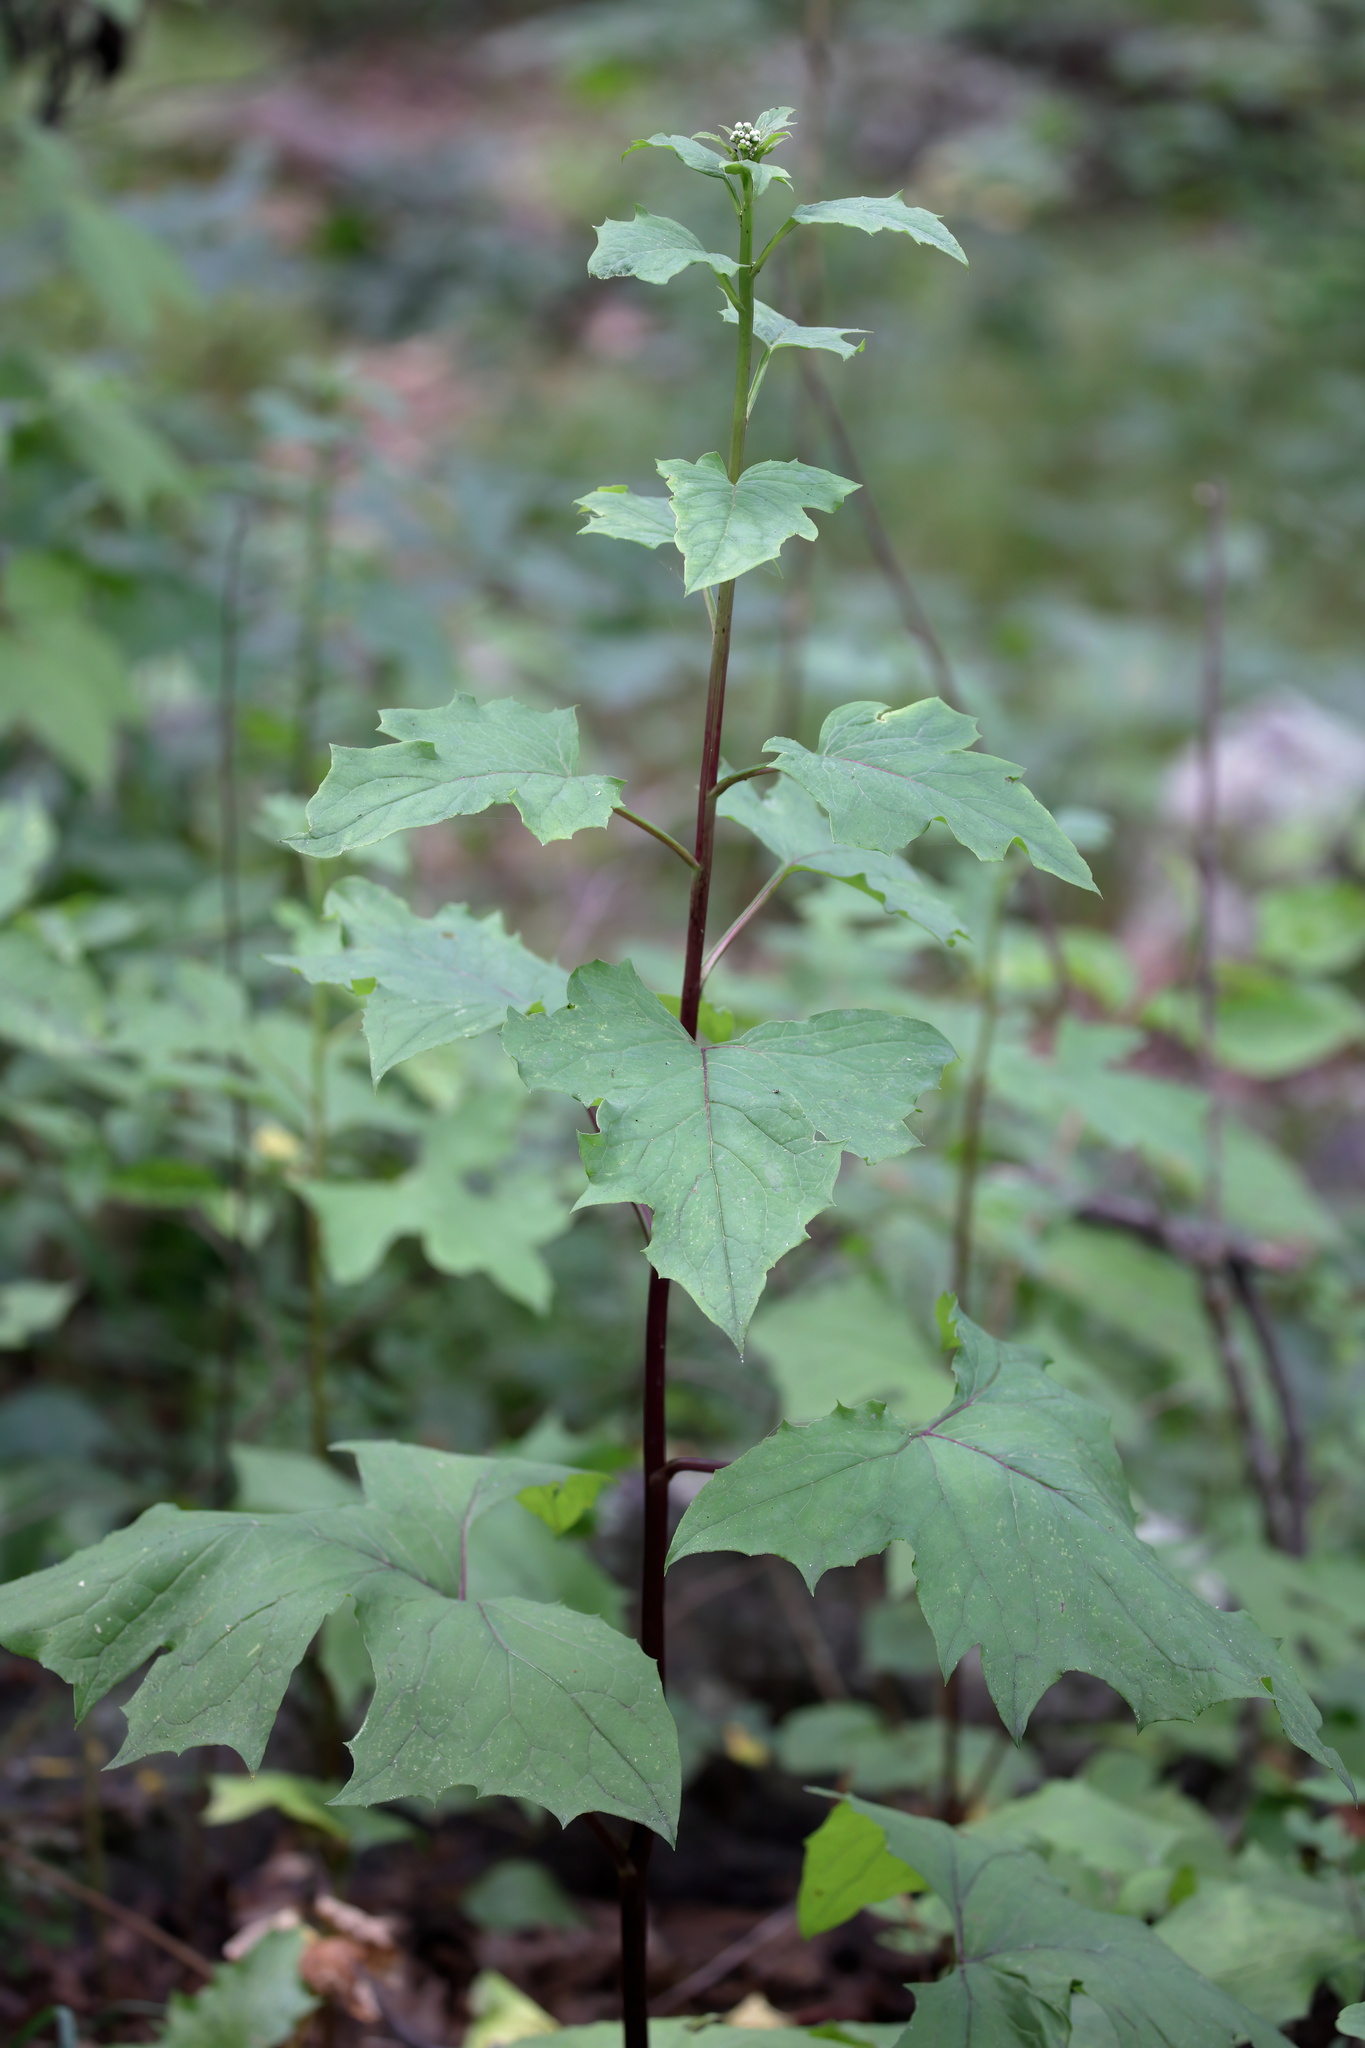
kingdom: Plantae
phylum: Tracheophyta
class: Magnoliopsida
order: Asterales
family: Asteraceae
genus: Nabalus
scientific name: Nabalus albus
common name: White rattlesnakeroot
